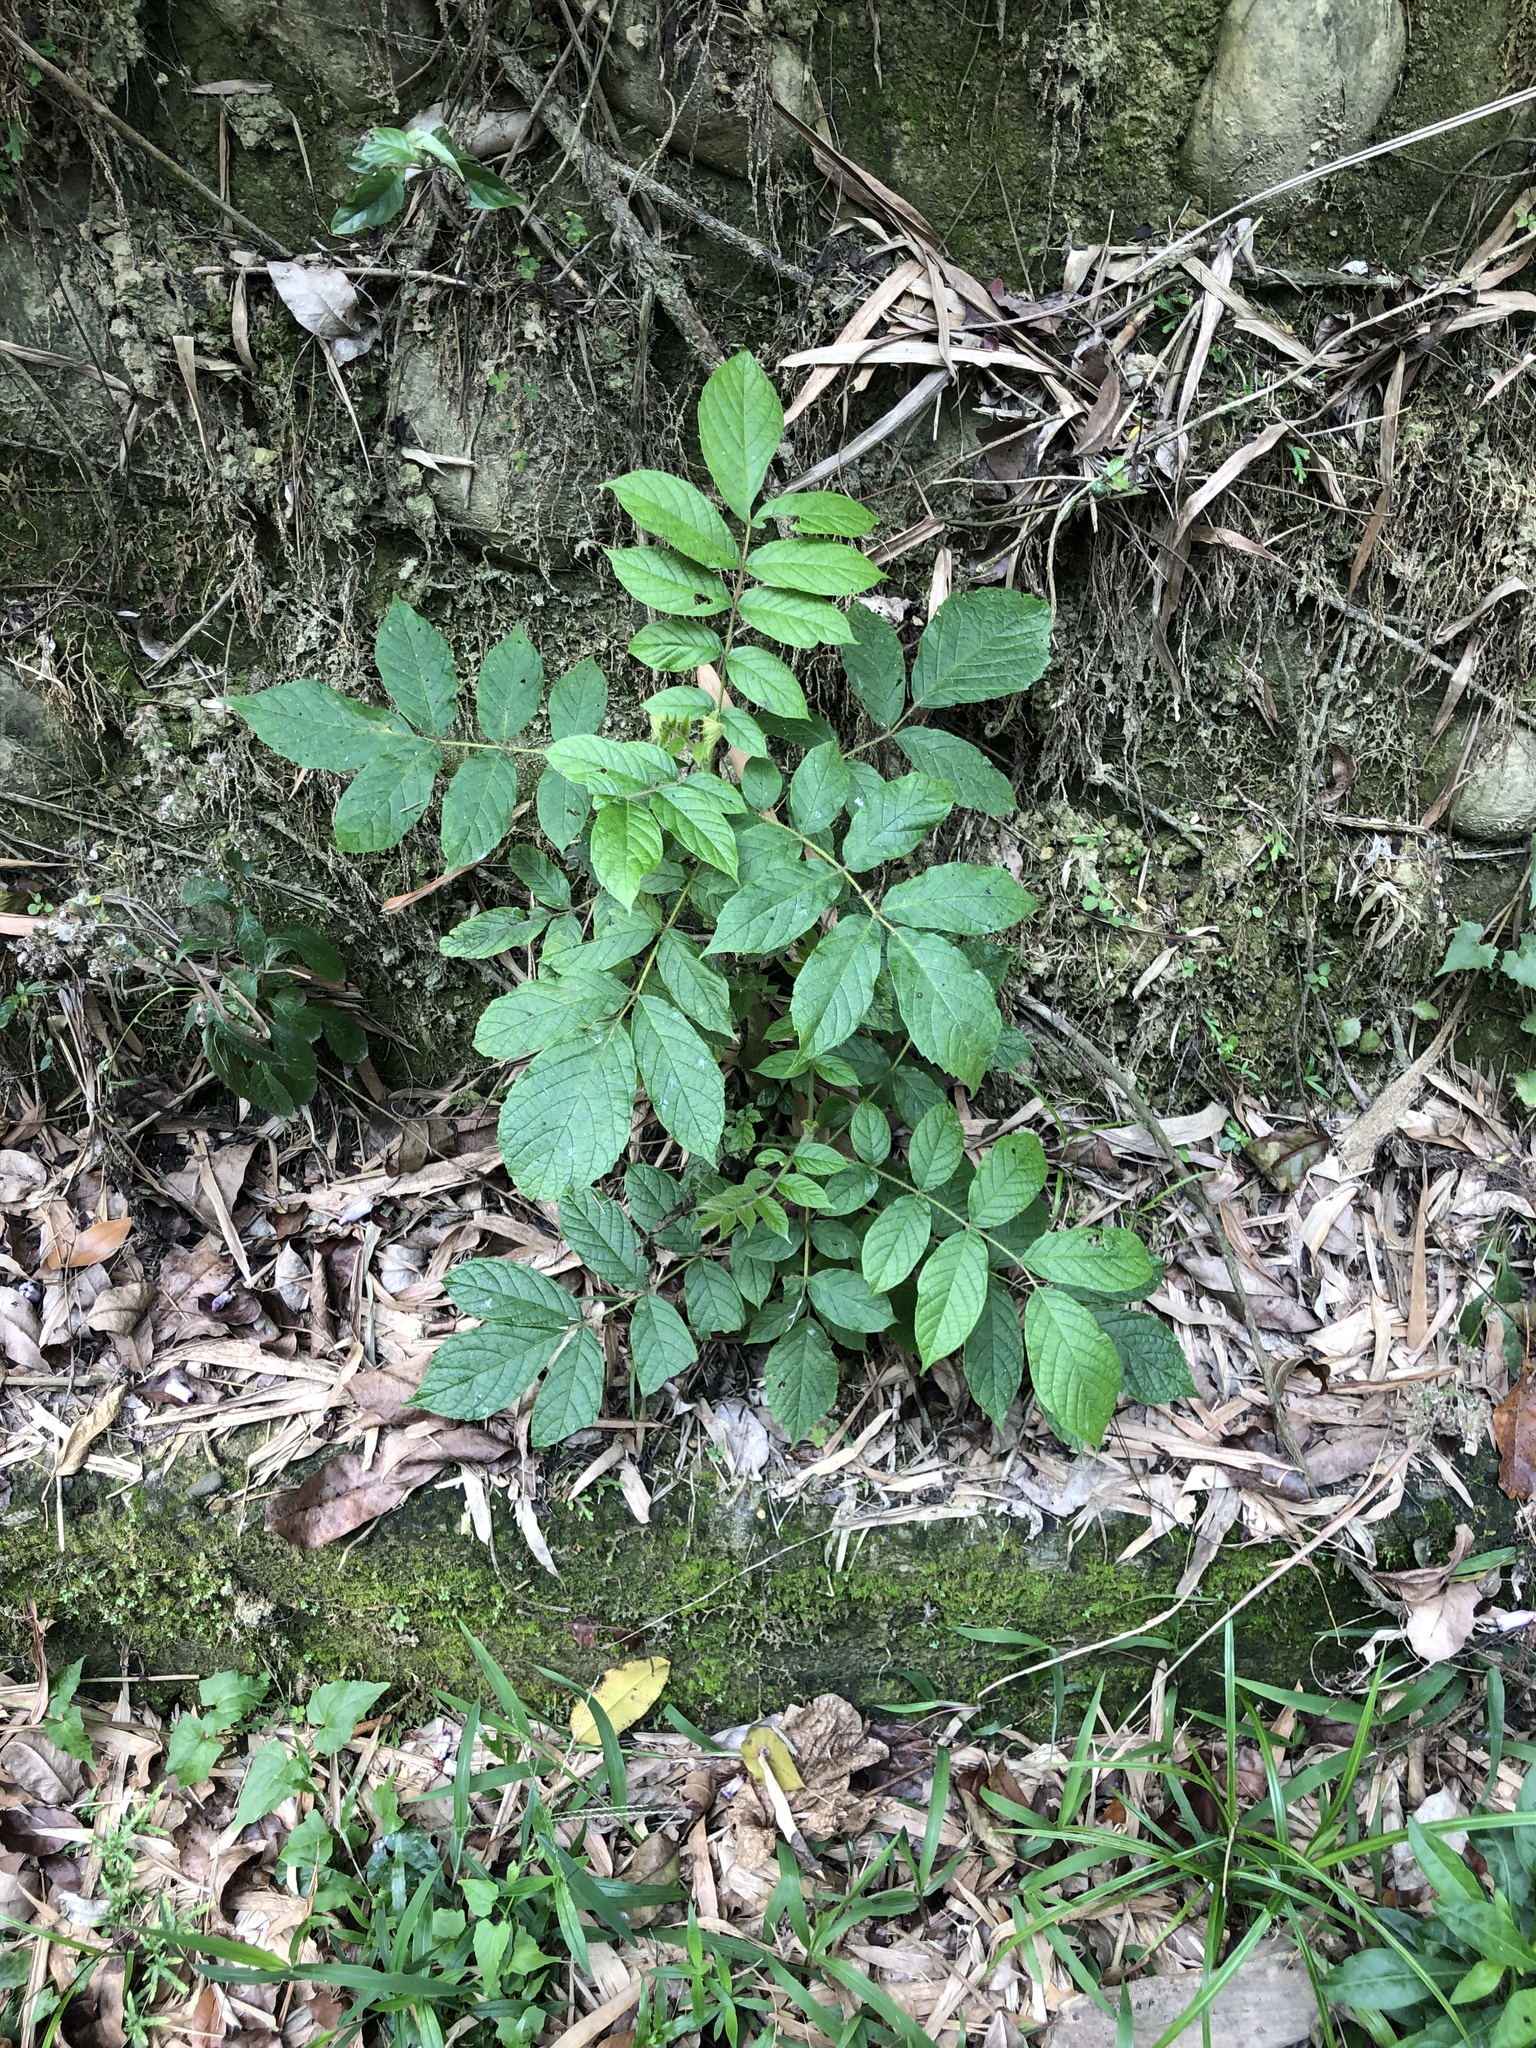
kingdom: Plantae
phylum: Tracheophyta
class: Magnoliopsida
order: Lamiales
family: Bignoniaceae
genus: Spathodea
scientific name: Spathodea campanulata
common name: African tuliptree
